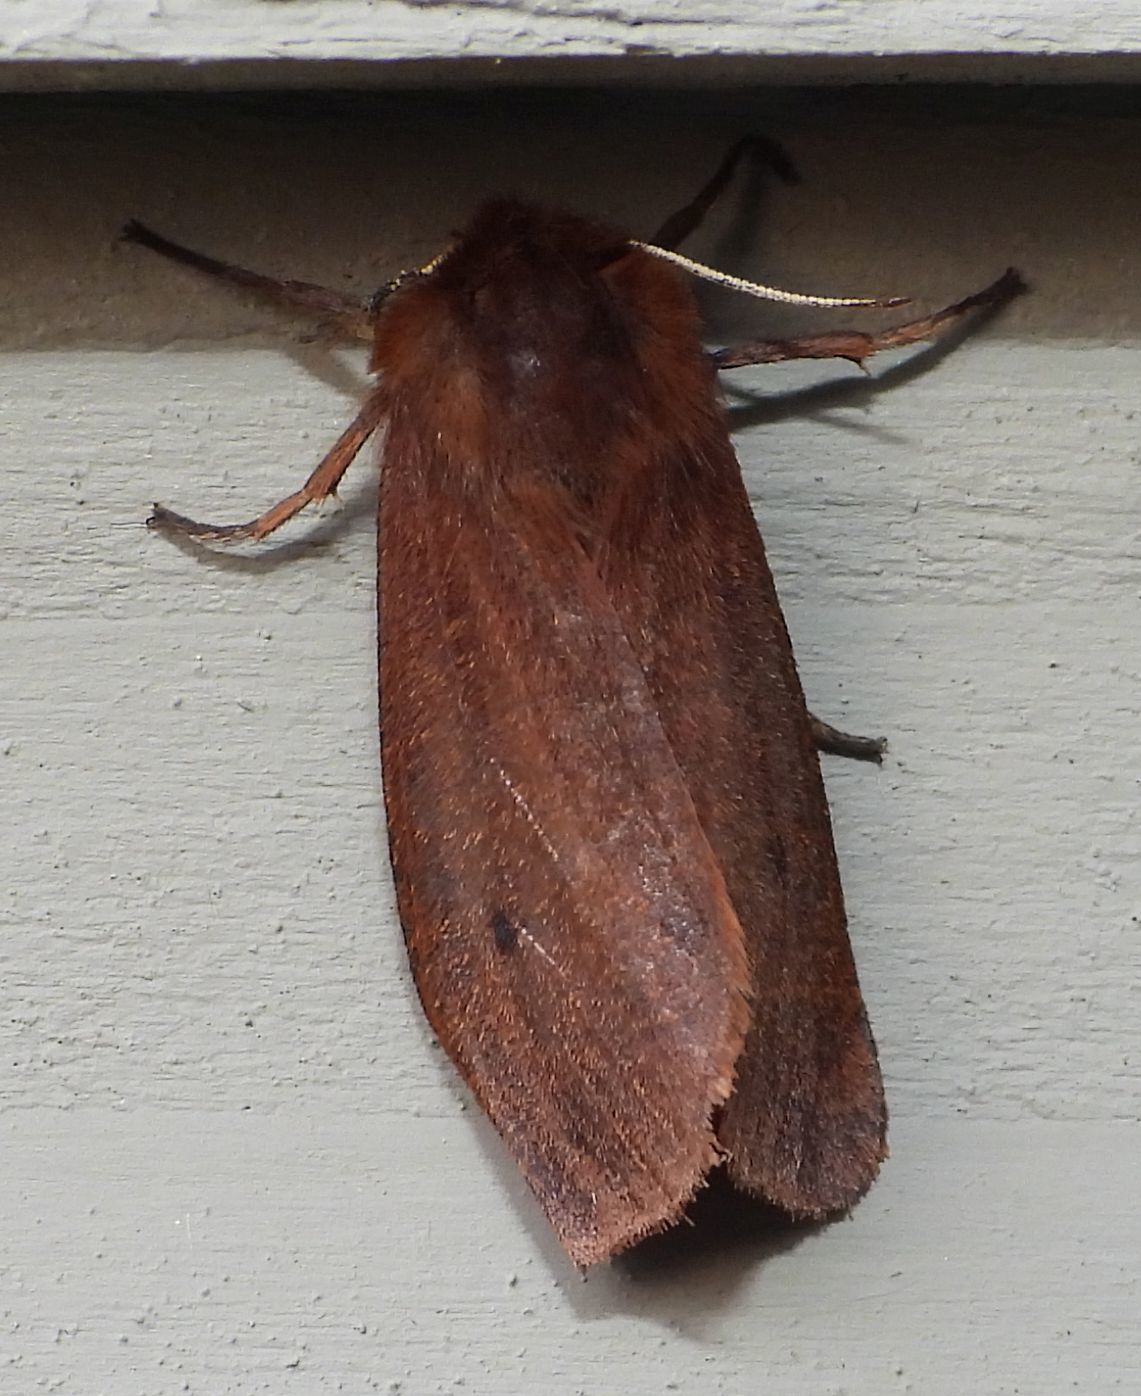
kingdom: Animalia
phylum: Arthropoda
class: Insecta
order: Lepidoptera
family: Erebidae
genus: Phragmatobia
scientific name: Phragmatobia fuliginosa
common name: Ruby tiger
